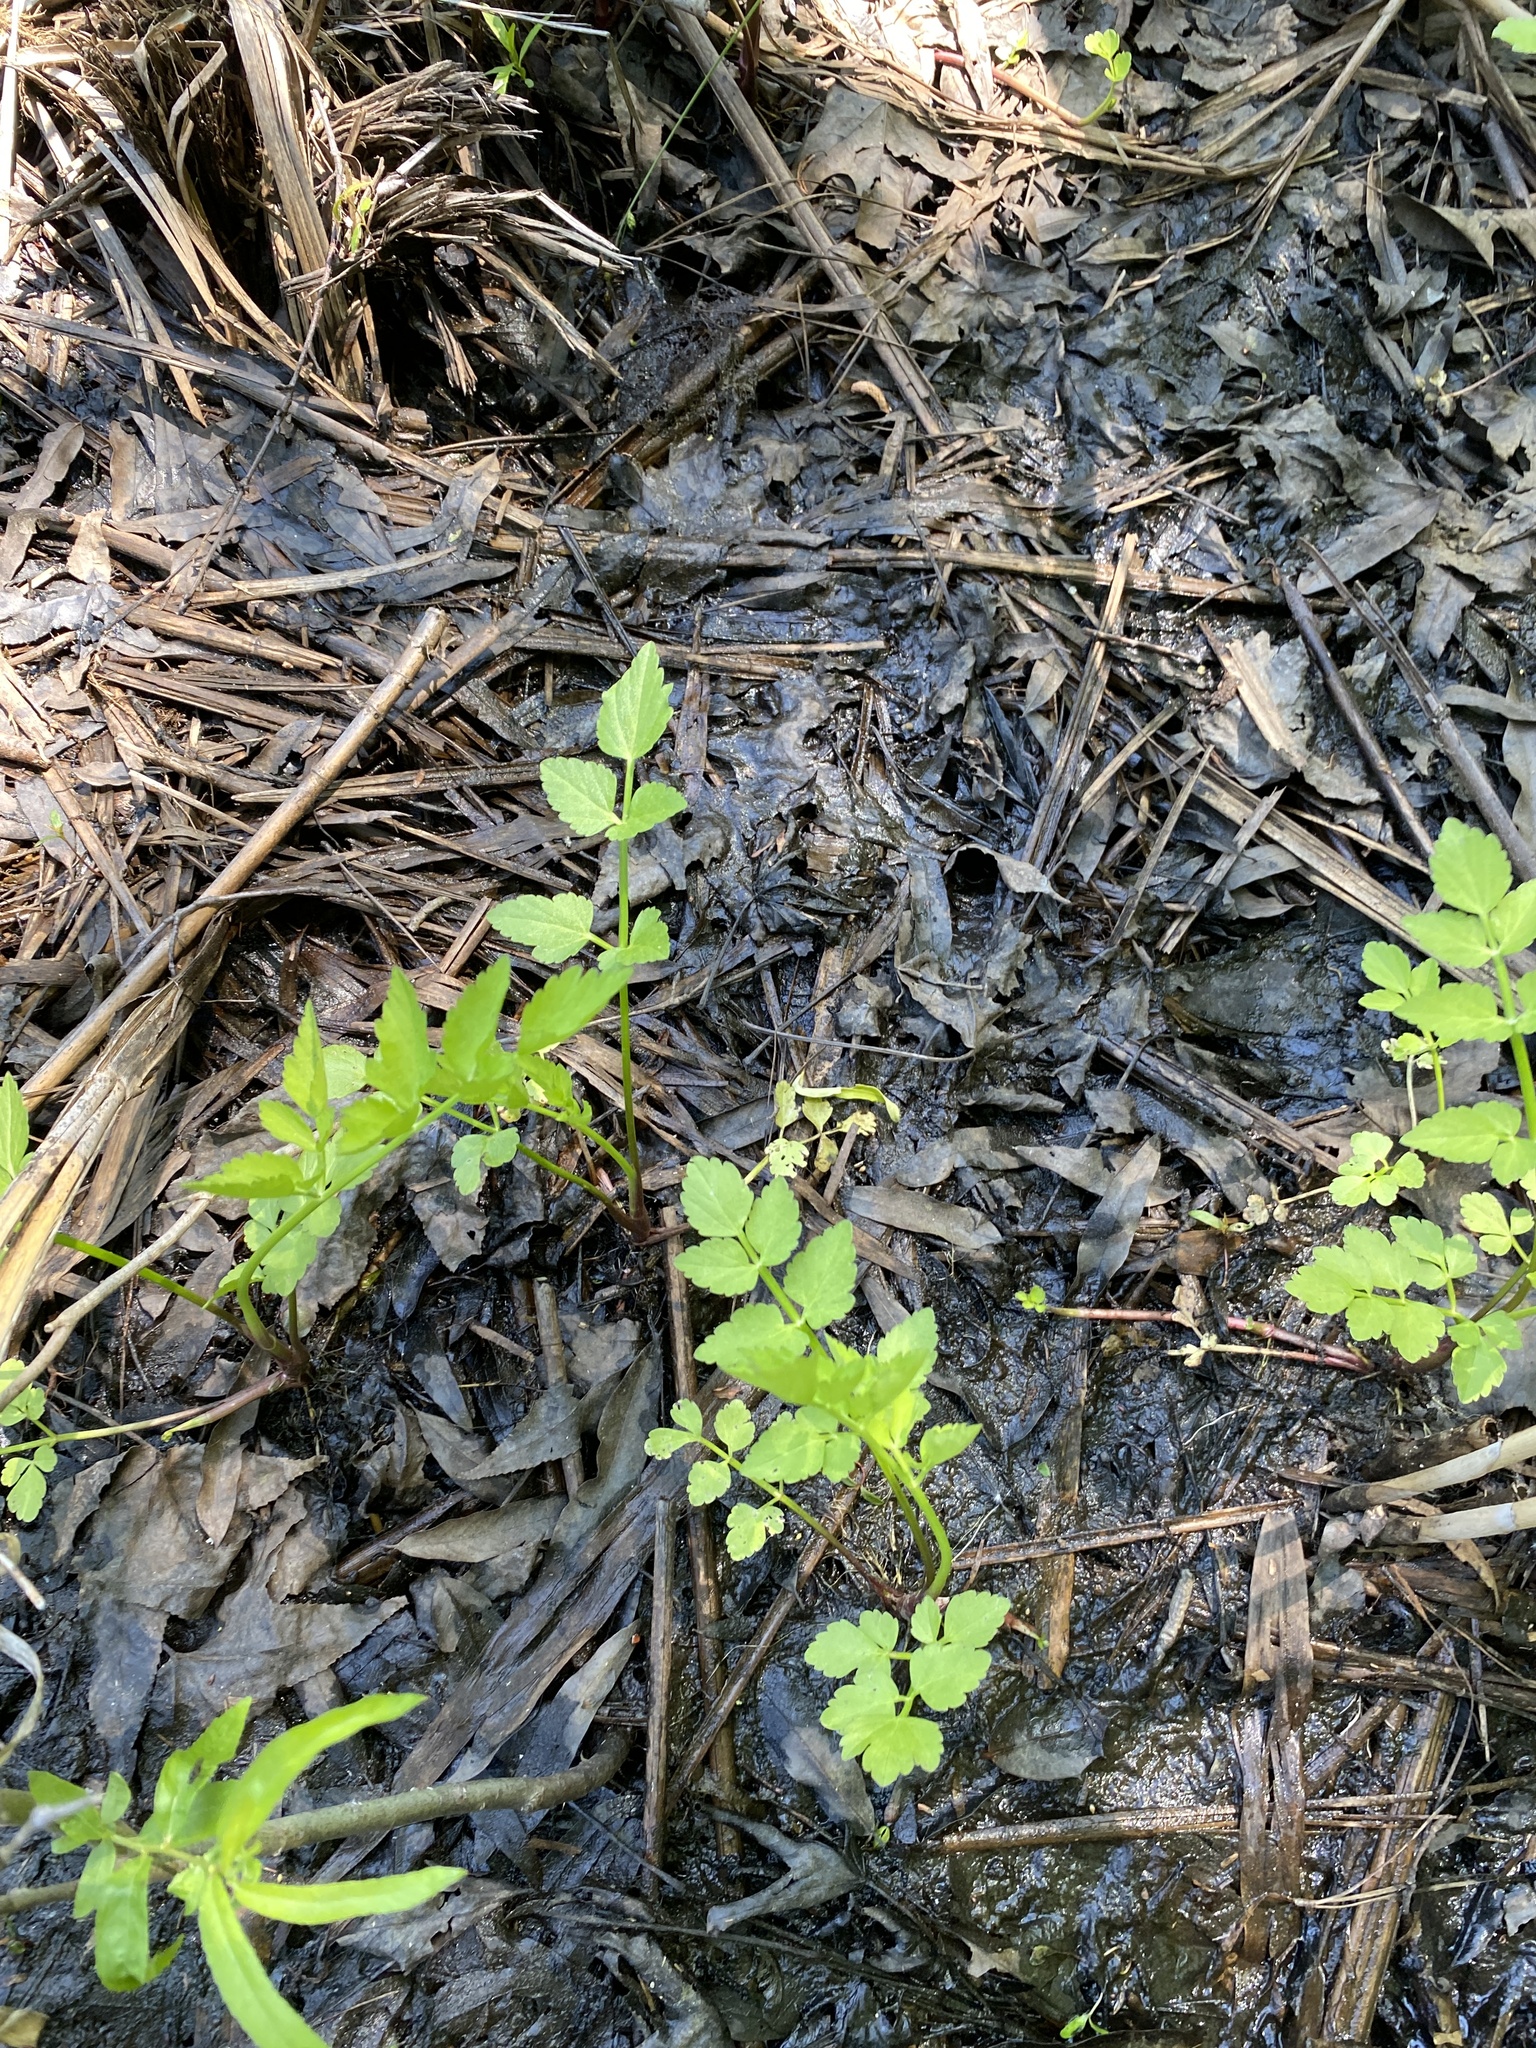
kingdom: Plantae
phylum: Tracheophyta
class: Magnoliopsida
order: Apiales
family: Apiaceae
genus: Oenanthe
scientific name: Oenanthe javanica
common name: Java water-dropwort
